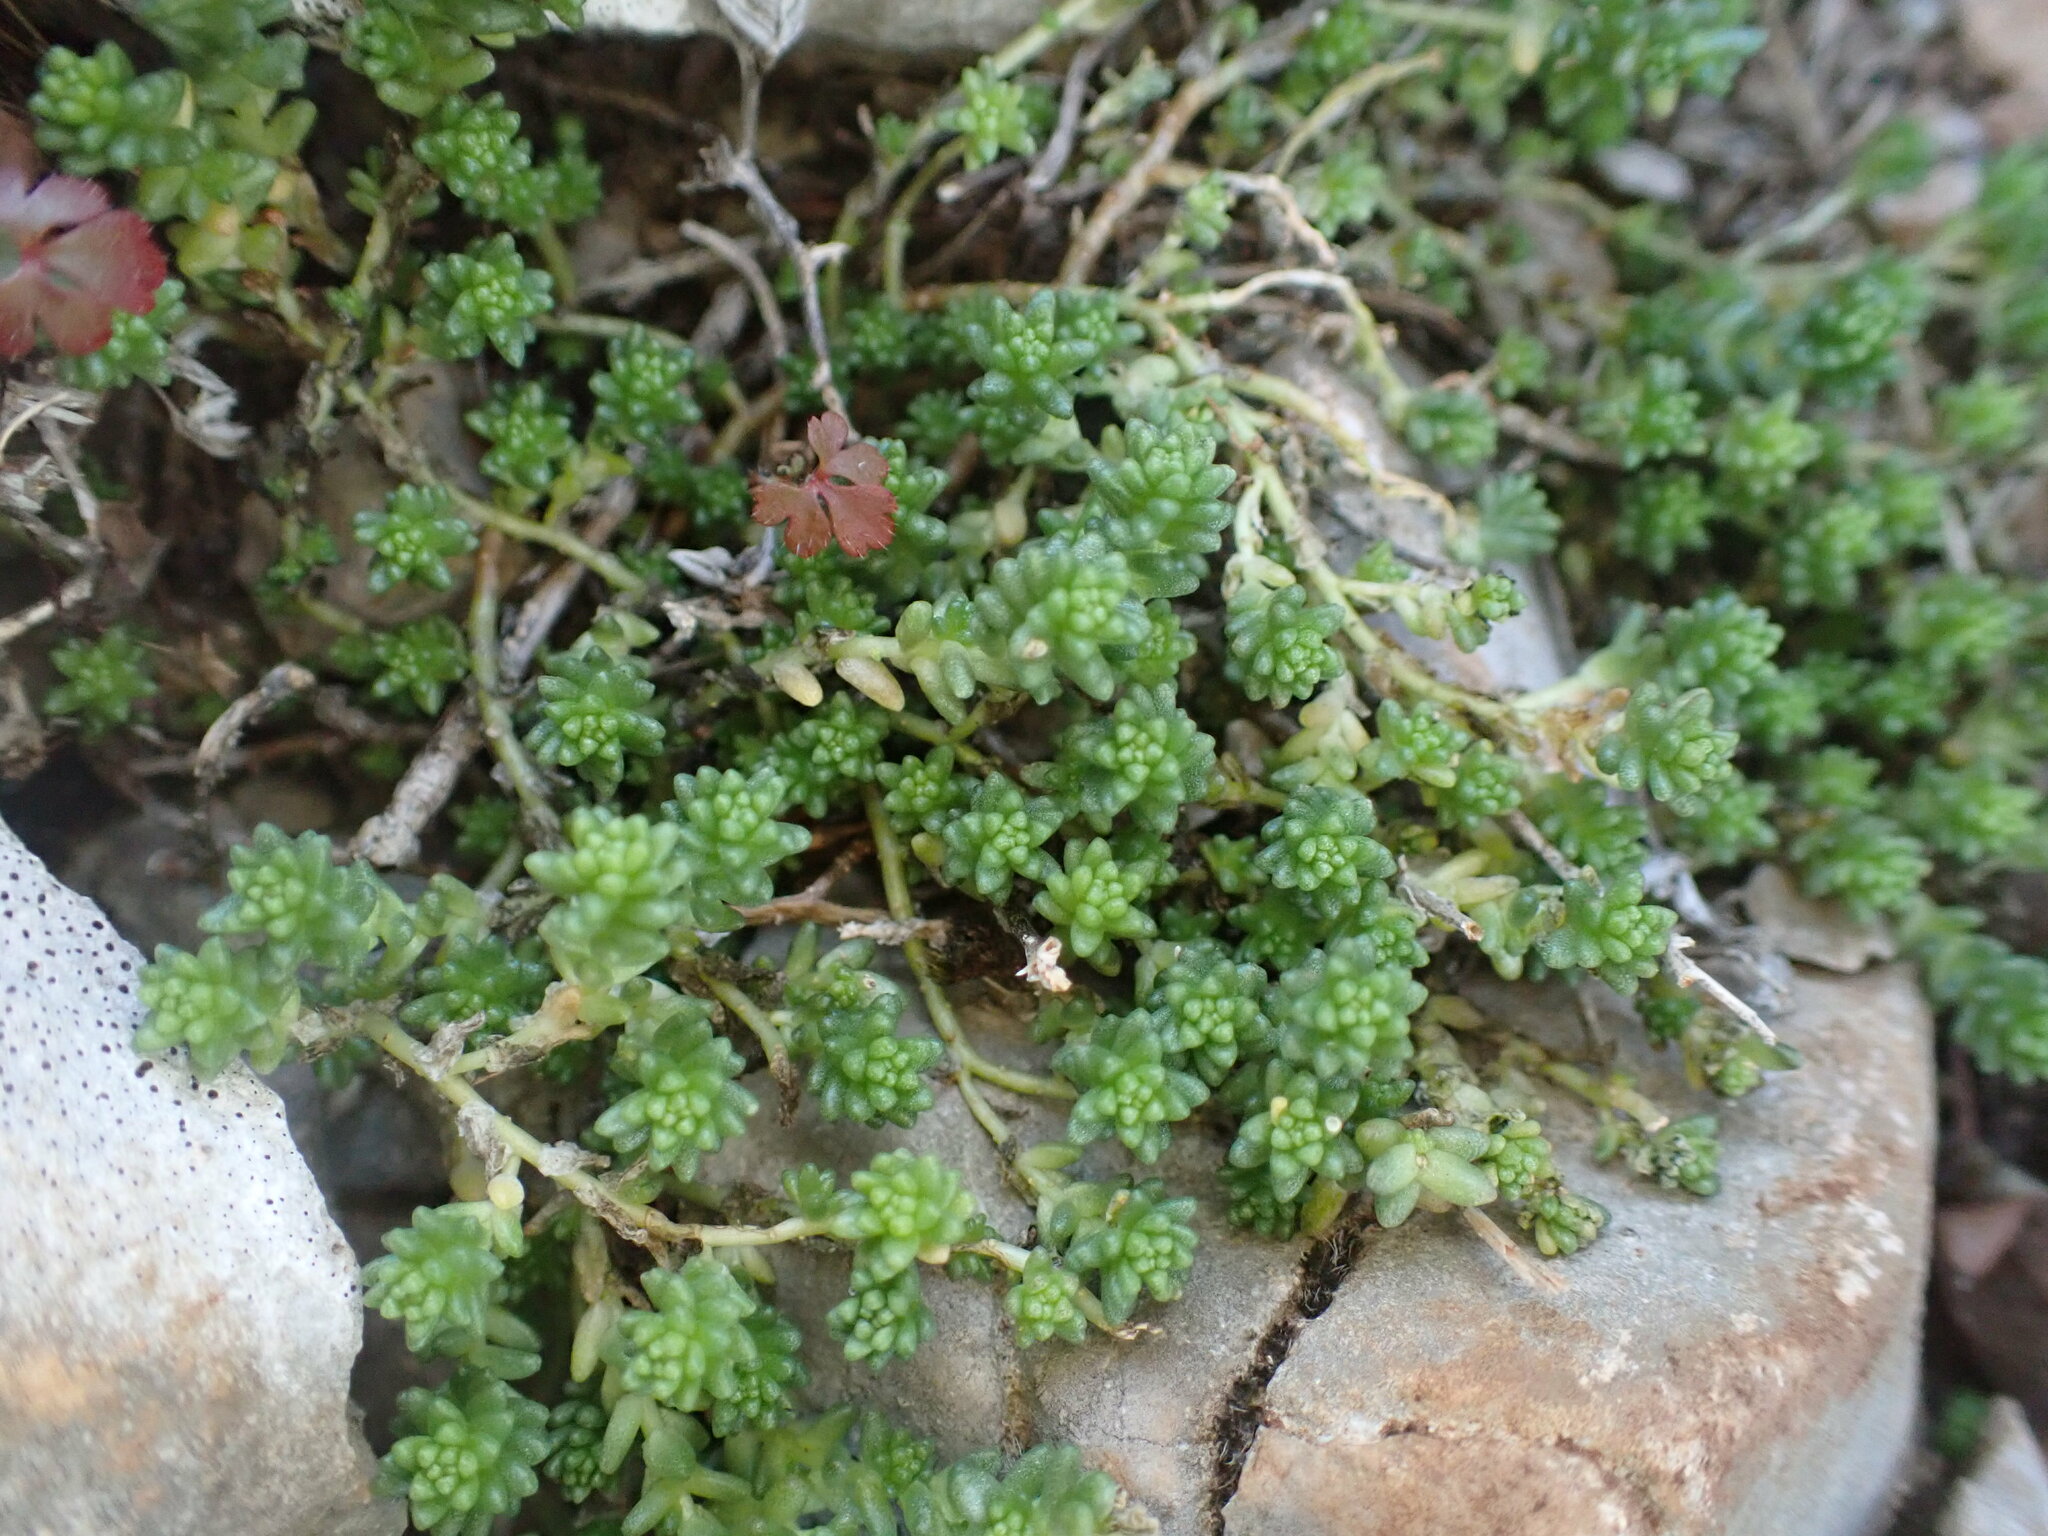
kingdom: Plantae
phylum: Tracheophyta
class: Magnoliopsida
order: Saxifragales
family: Crassulaceae
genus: Sedum
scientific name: Sedum acre
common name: Biting stonecrop
